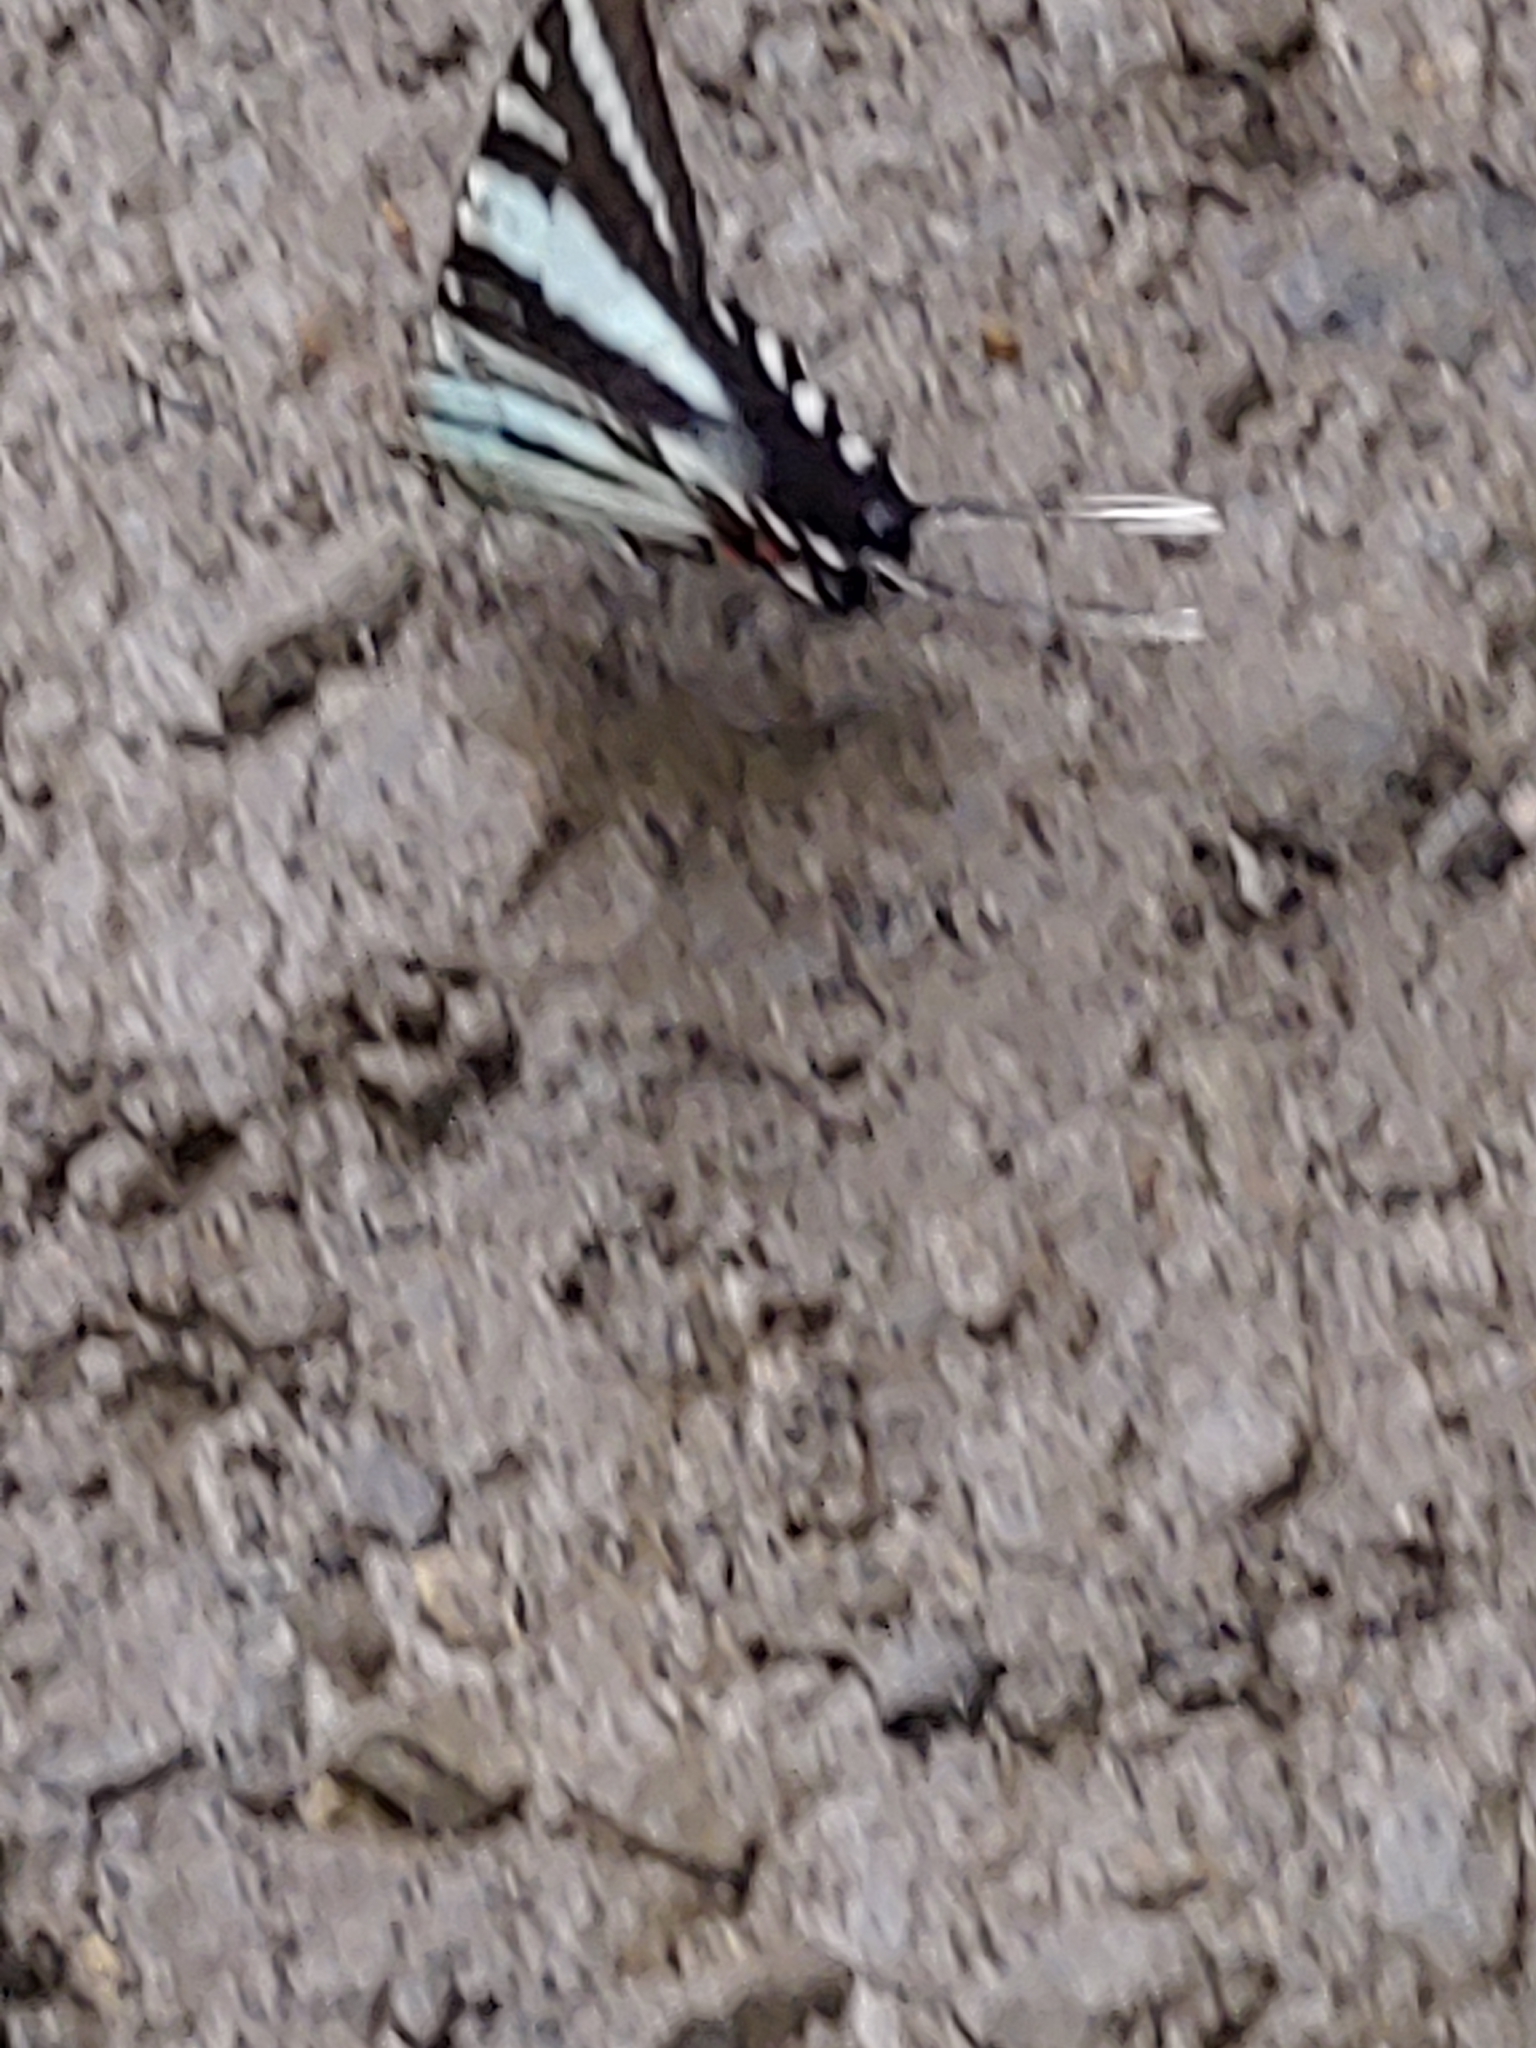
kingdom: Animalia
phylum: Arthropoda
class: Insecta
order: Lepidoptera
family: Papilionidae
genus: Protographium
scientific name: Protographium marcellus
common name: Zebra swallowtail
